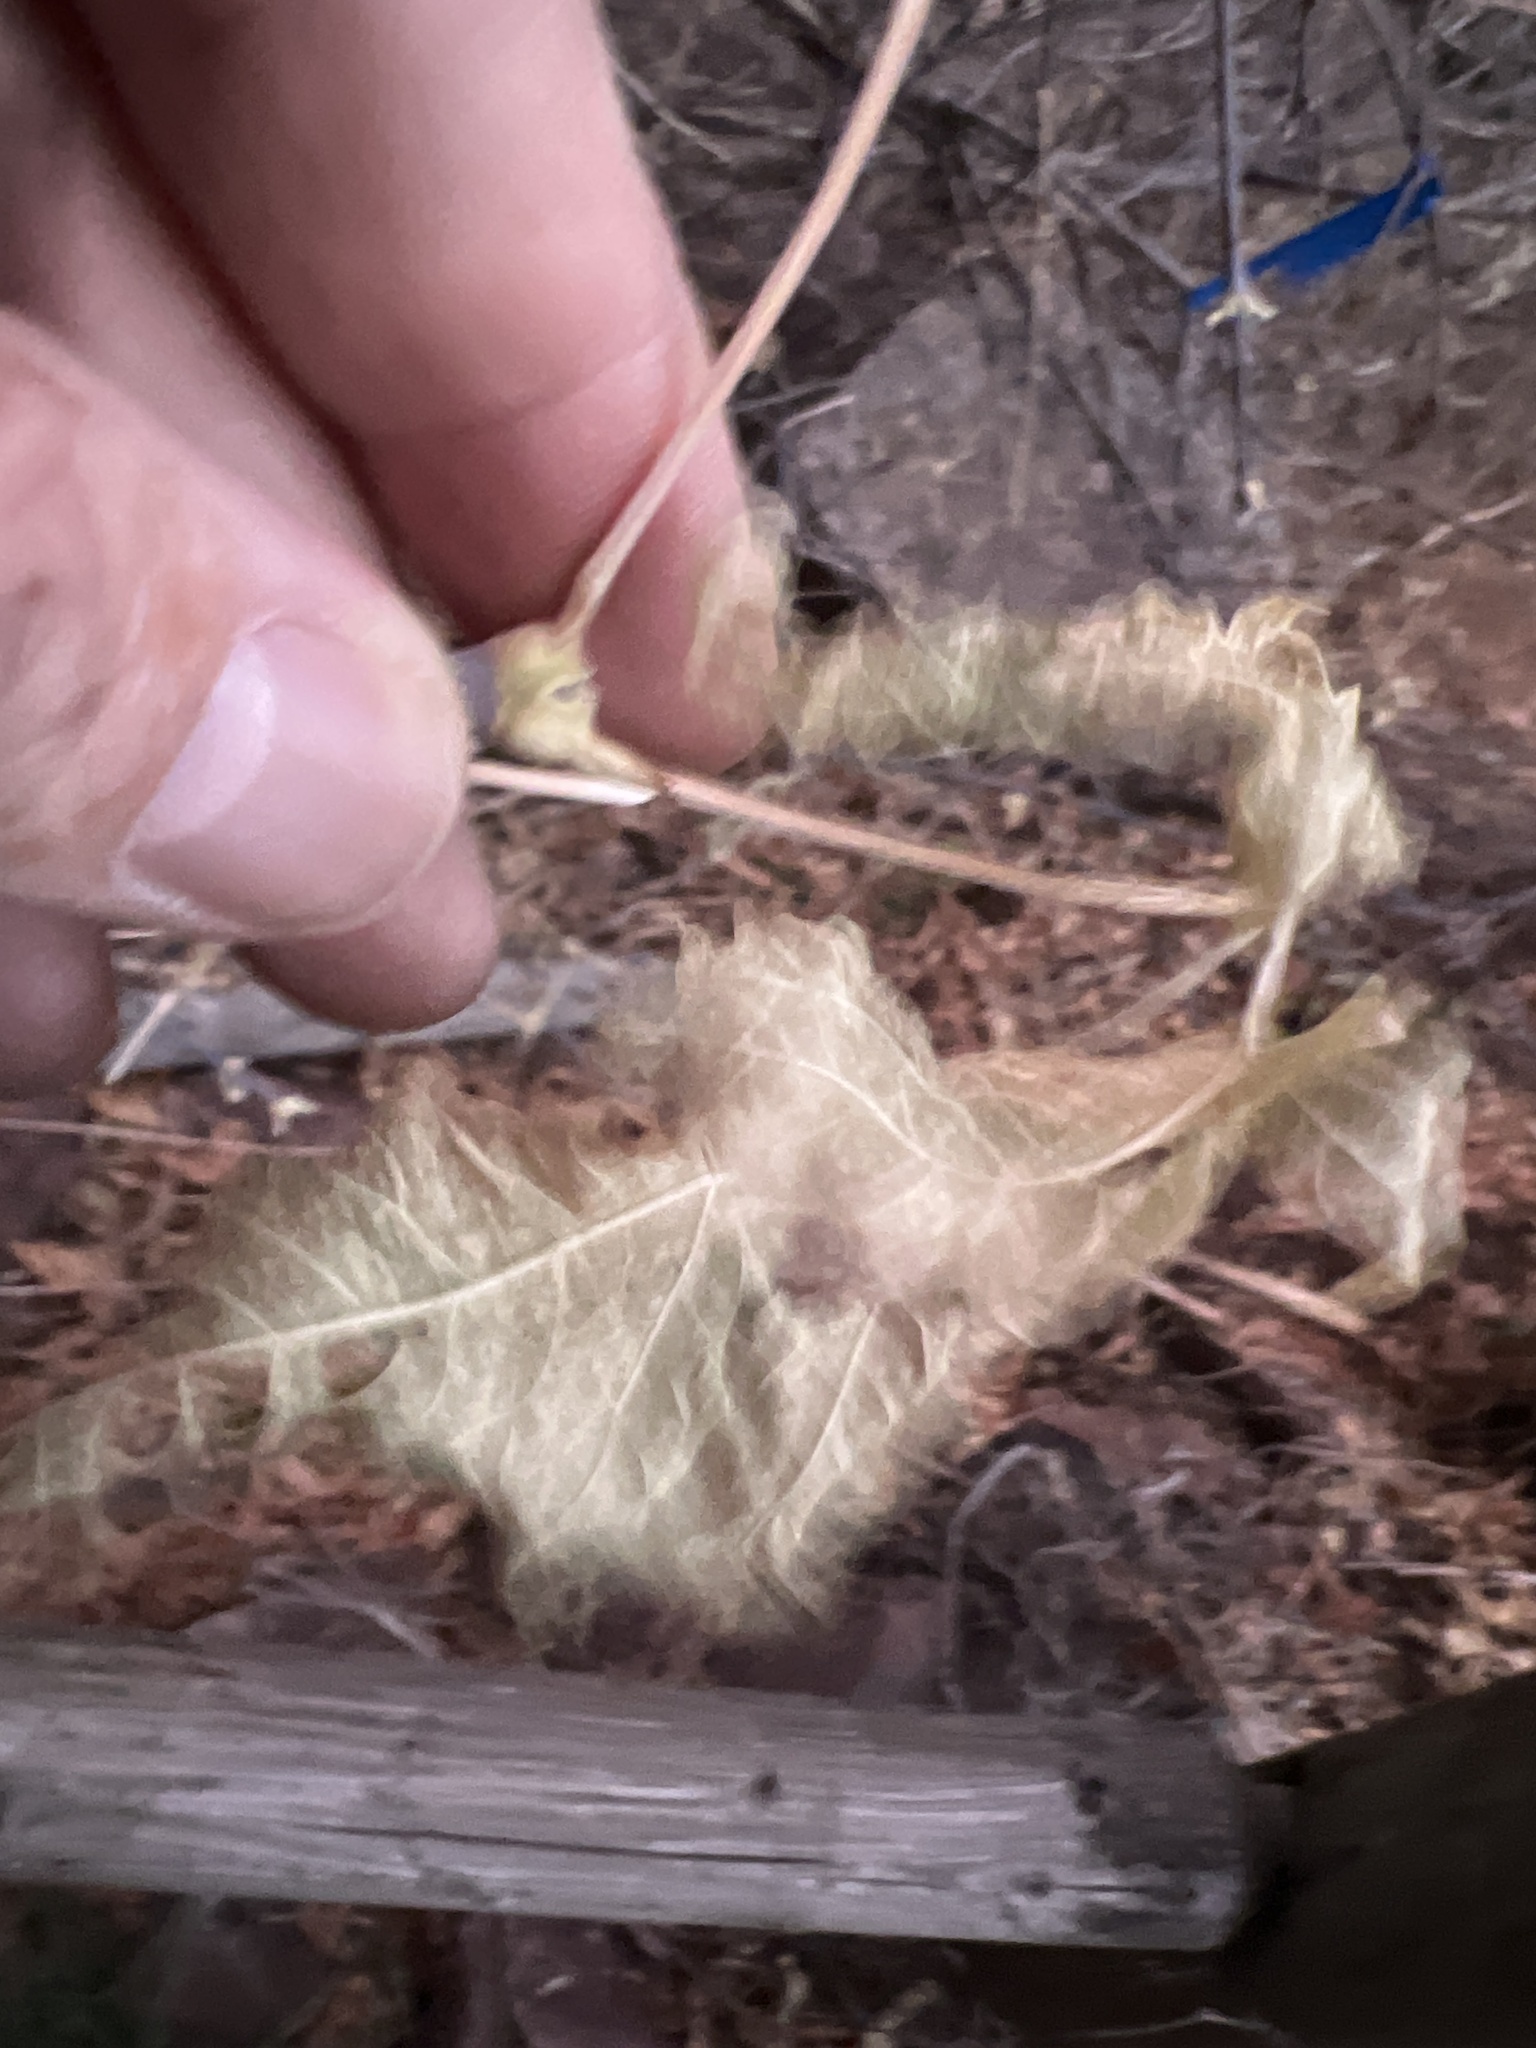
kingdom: Plantae
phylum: Tracheophyta
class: Magnoliopsida
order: Sapindales
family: Sapindaceae
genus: Acer
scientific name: Acer negundo
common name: Ashleaf maple
